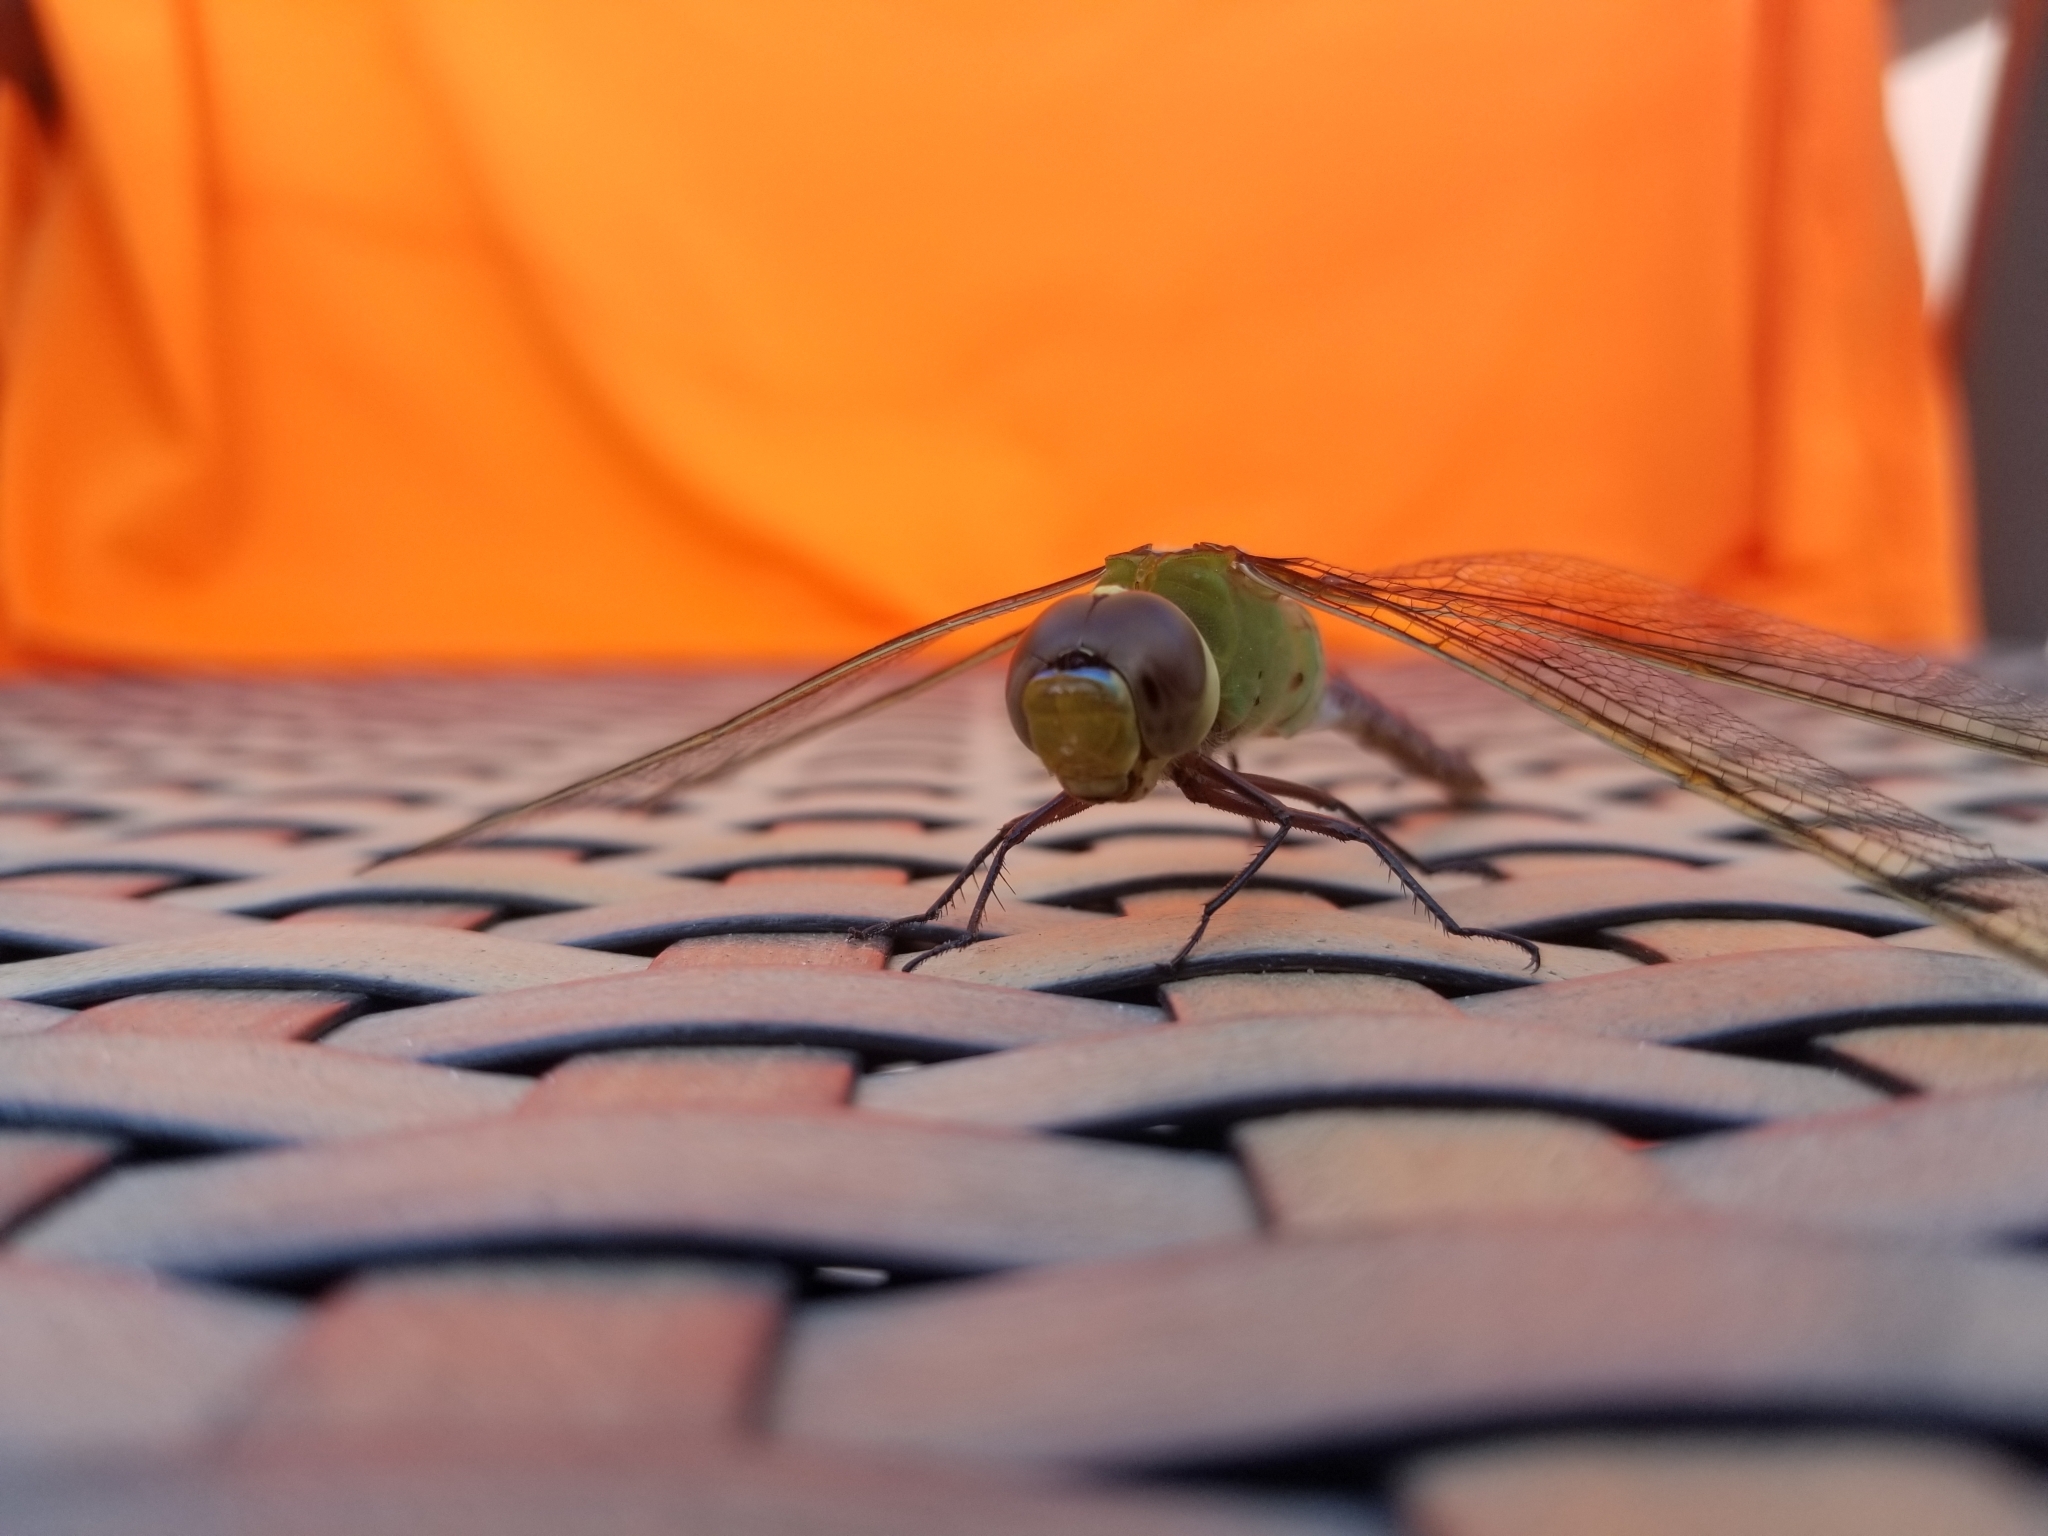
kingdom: Animalia
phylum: Arthropoda
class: Insecta
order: Odonata
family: Aeshnidae
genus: Anax
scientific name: Anax junius
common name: Common green darner
